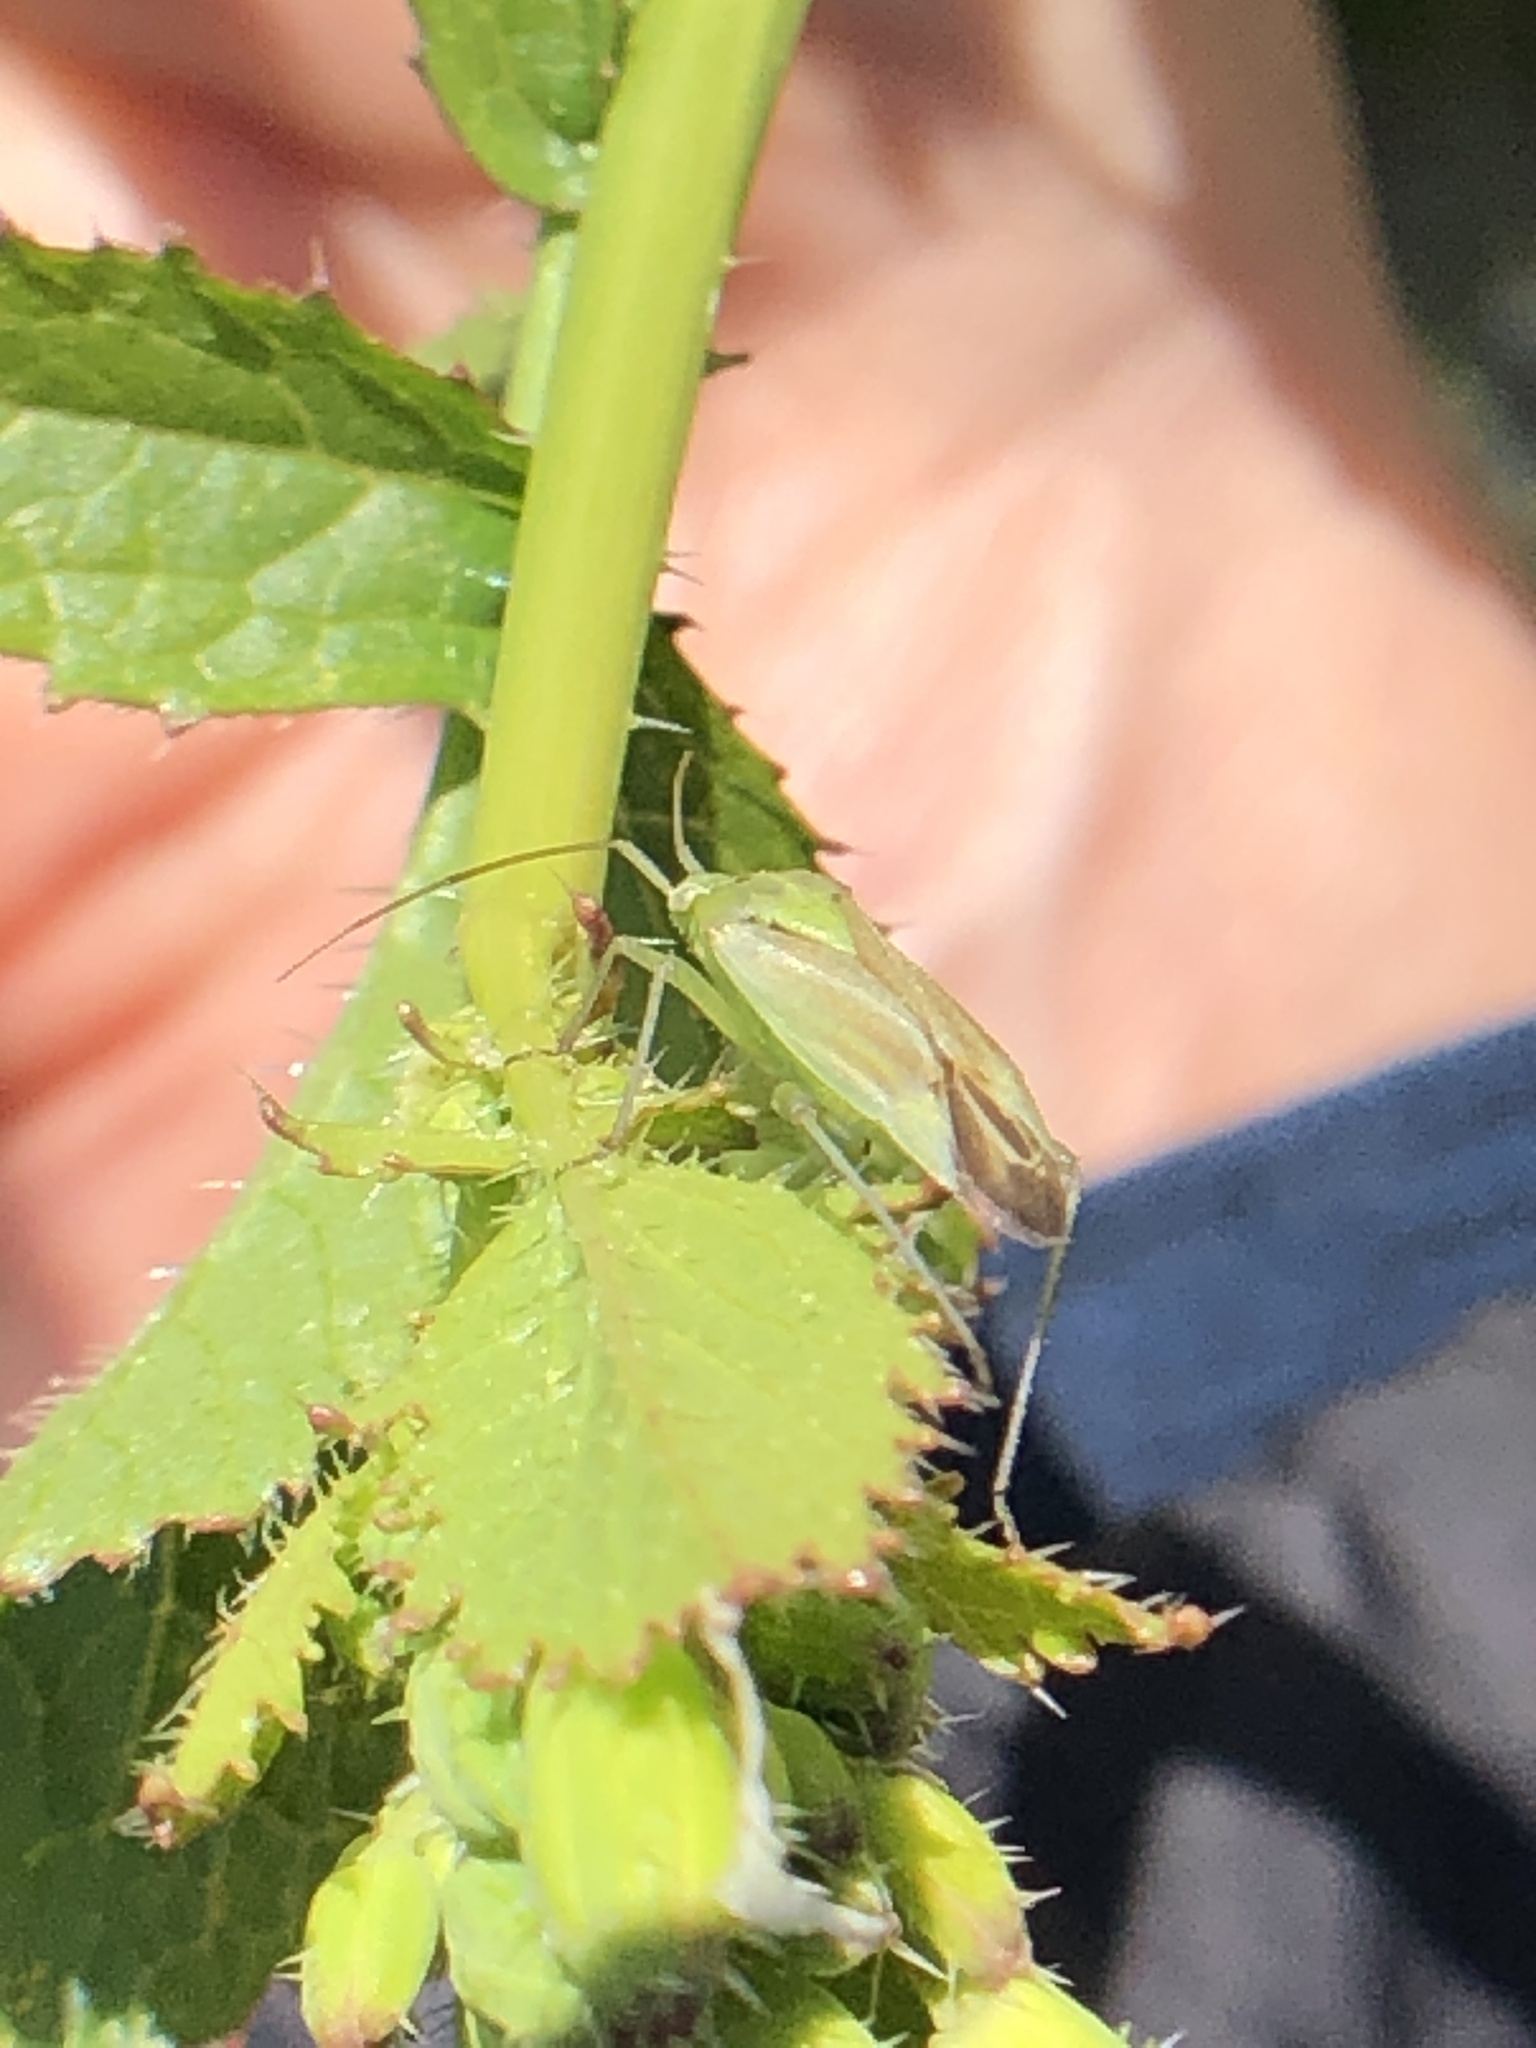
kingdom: Animalia
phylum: Arthropoda
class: Insecta
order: Hemiptera
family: Miridae
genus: Closterotomus
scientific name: Closterotomus norvegicus
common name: Plant bug
